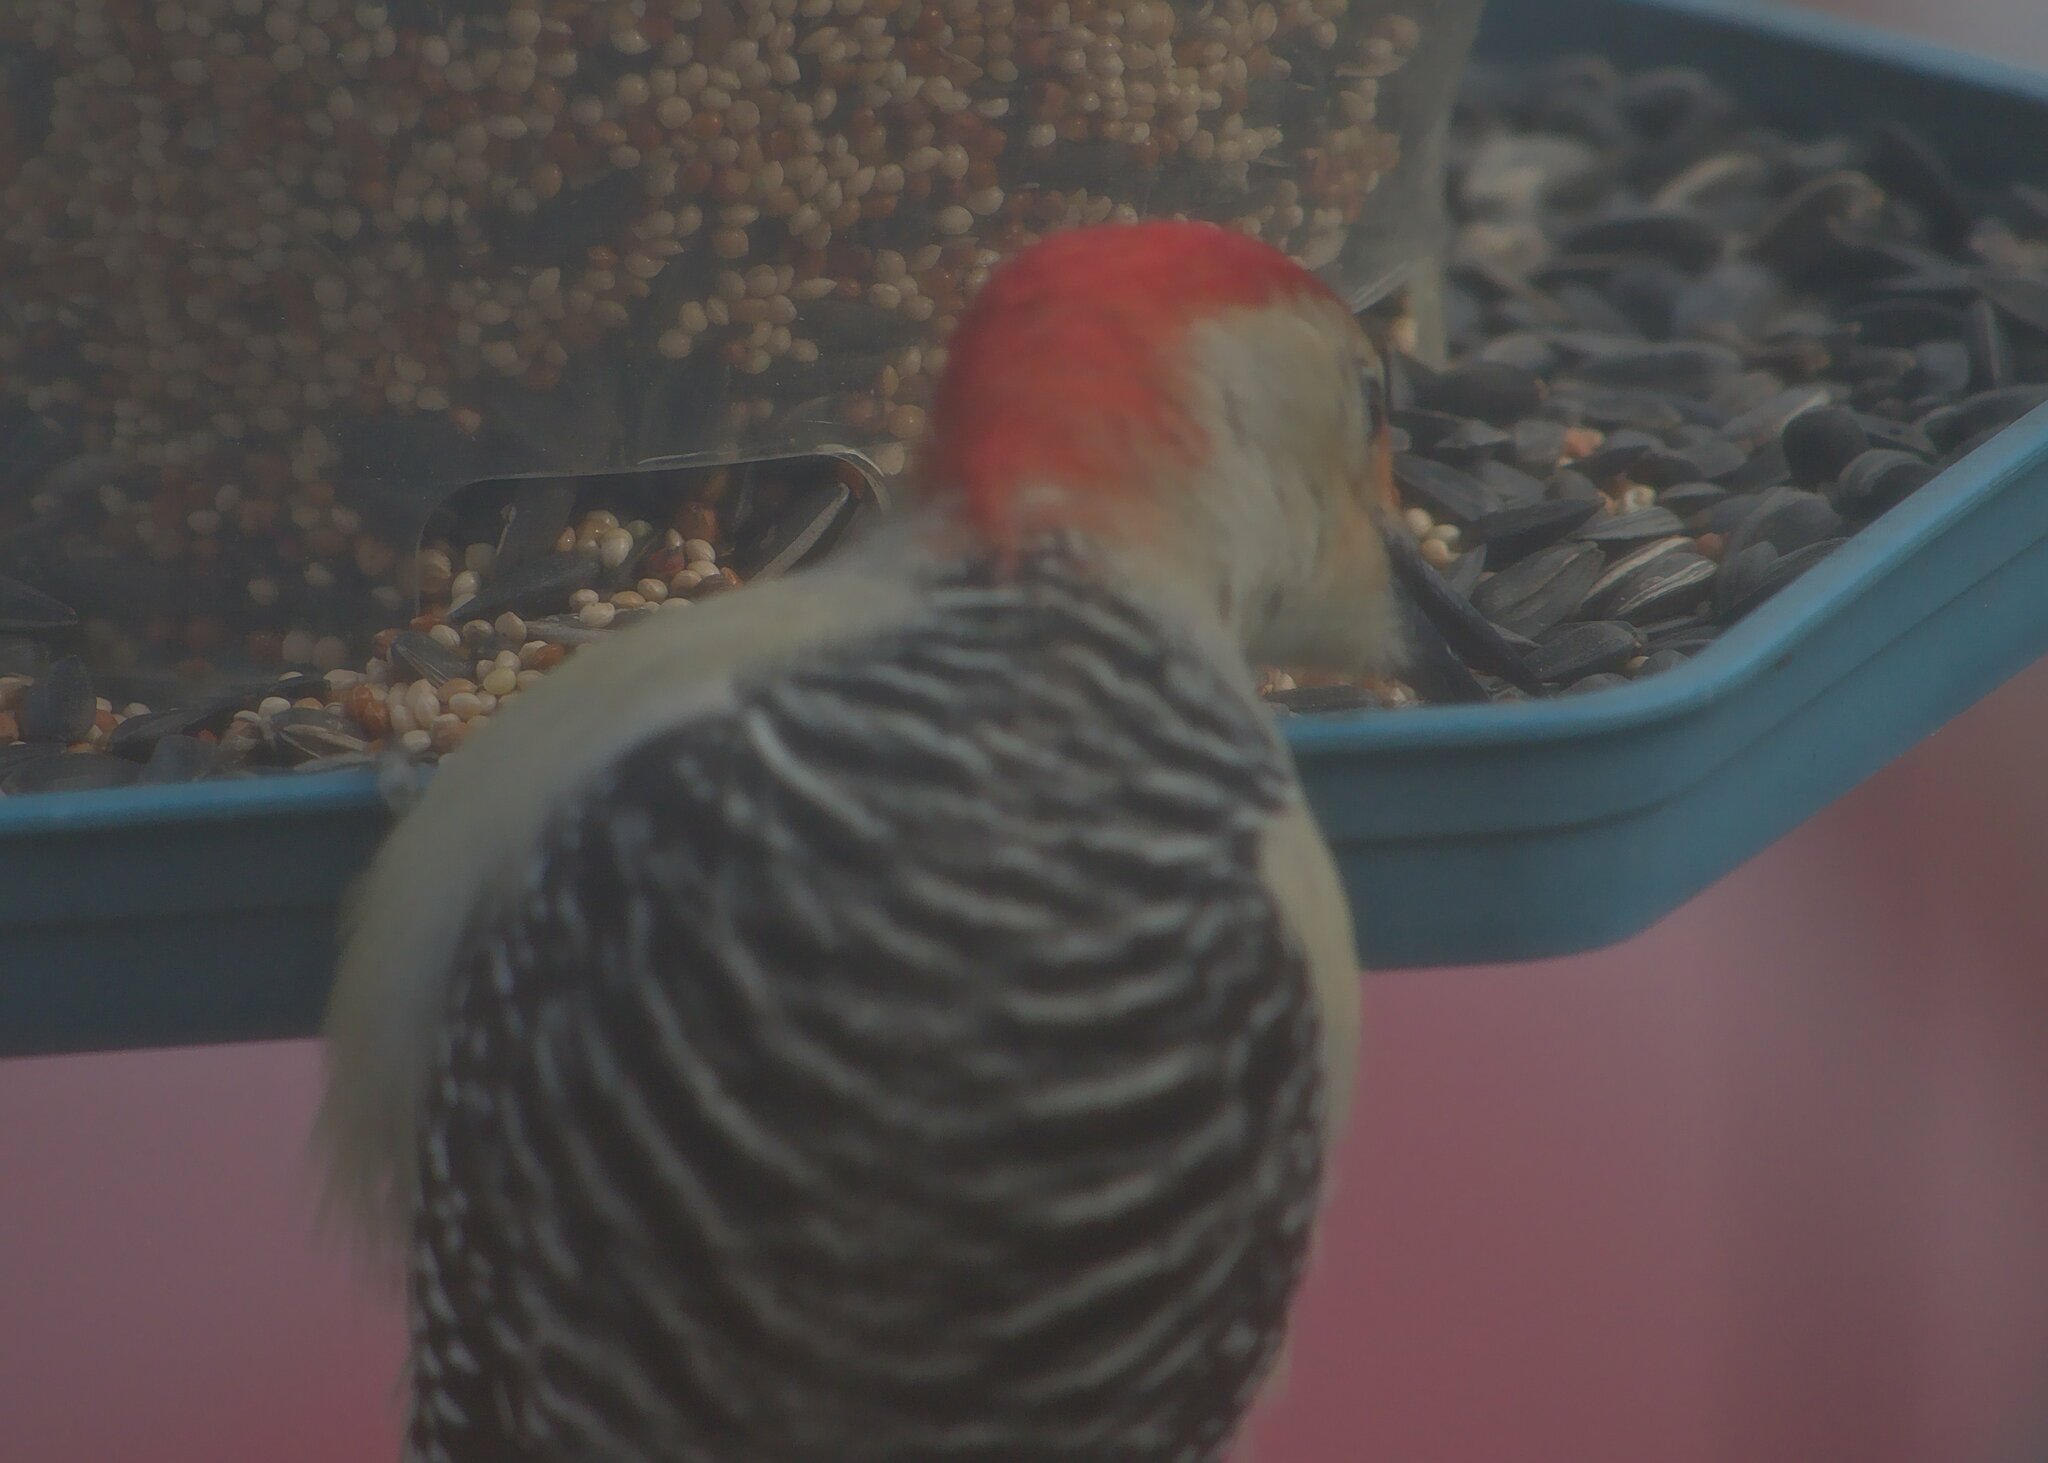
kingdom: Animalia
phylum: Chordata
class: Aves
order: Piciformes
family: Picidae
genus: Melanerpes
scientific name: Melanerpes carolinus
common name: Red-bellied woodpecker
